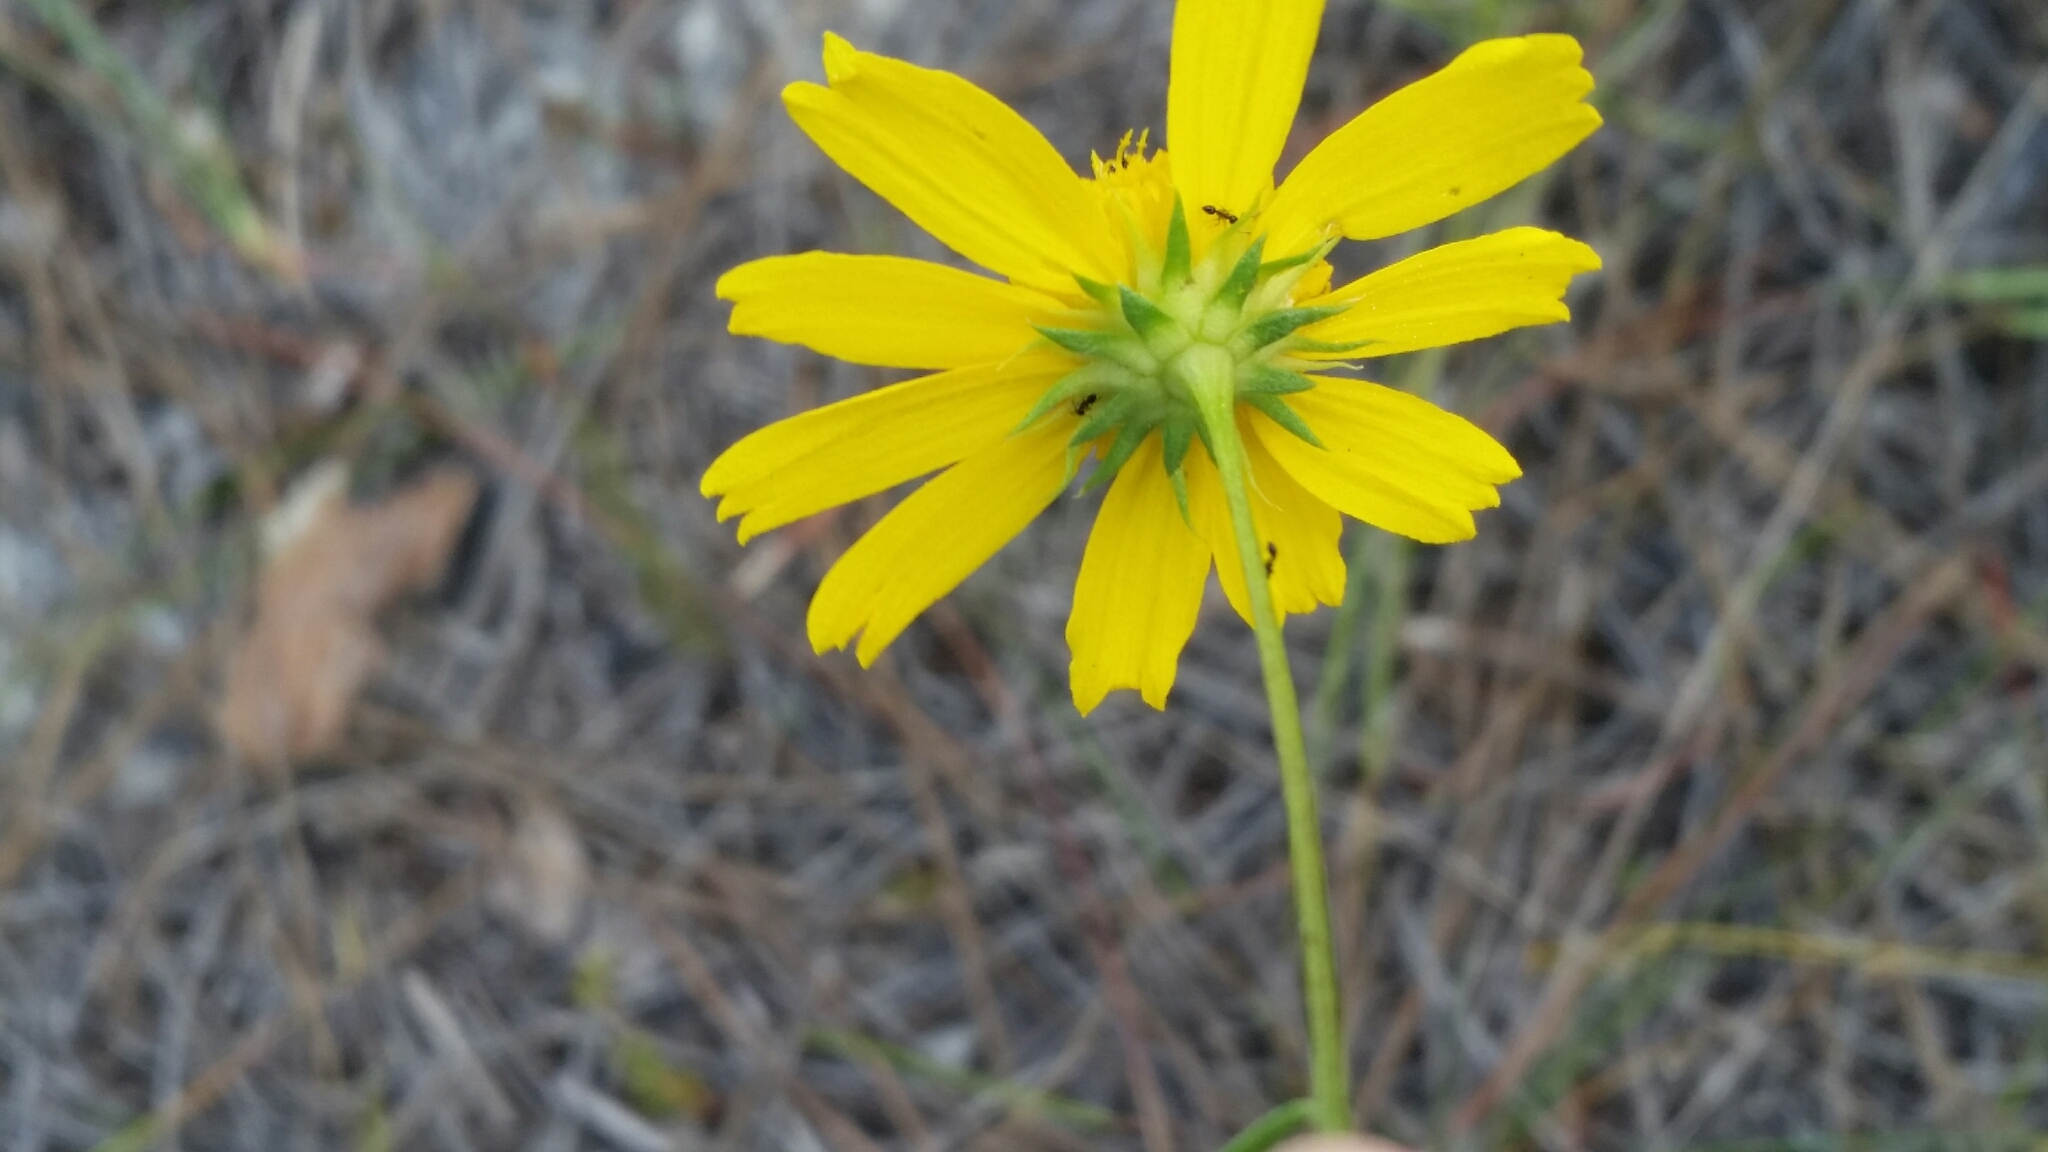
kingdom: Plantae
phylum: Tracheophyta
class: Magnoliopsida
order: Asterales
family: Asteraceae
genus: Balduina
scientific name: Balduina angustifolia
